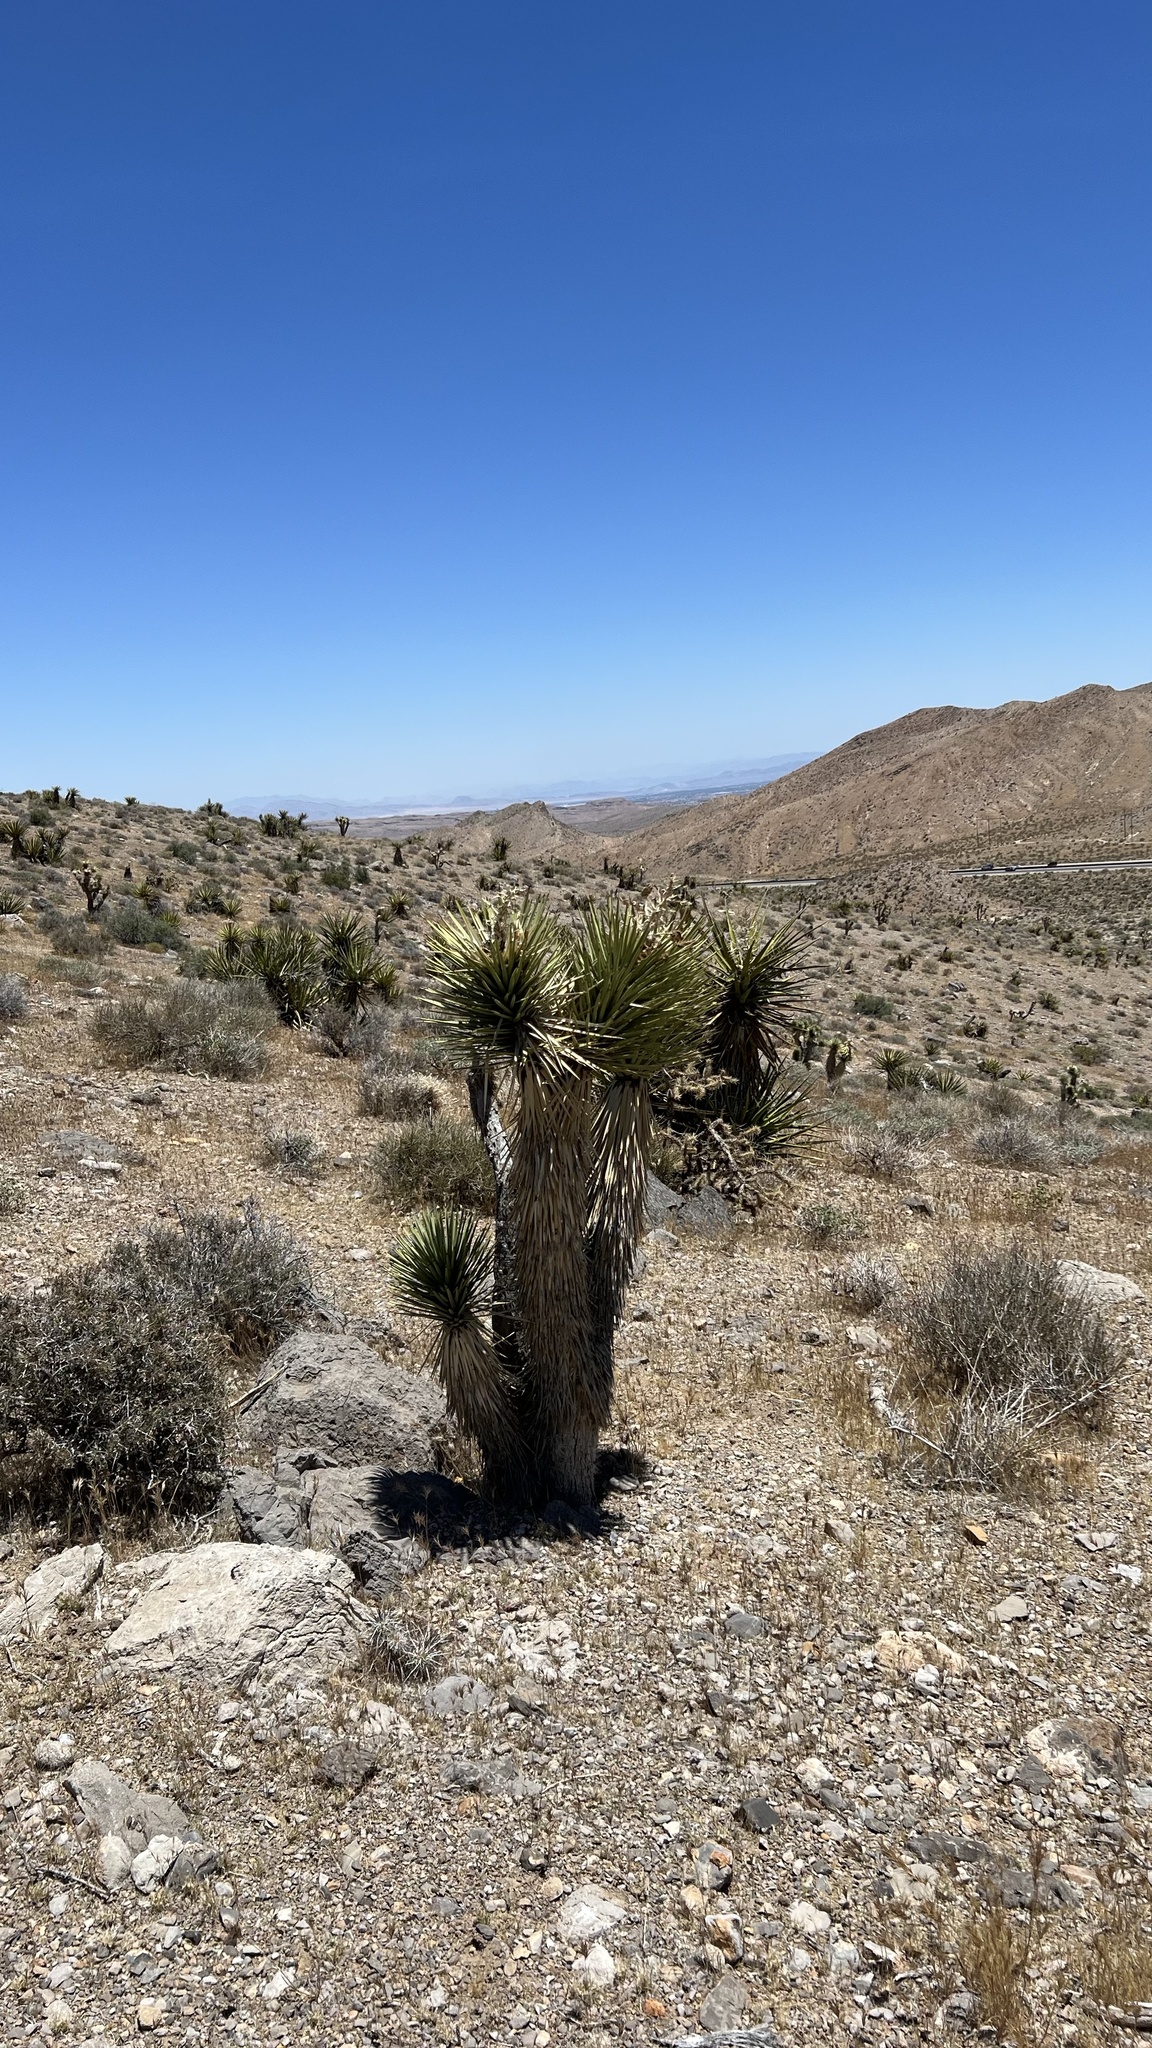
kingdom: Plantae
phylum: Tracheophyta
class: Liliopsida
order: Asparagales
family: Asparagaceae
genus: Yucca
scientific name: Yucca brevifolia
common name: Joshua tree
